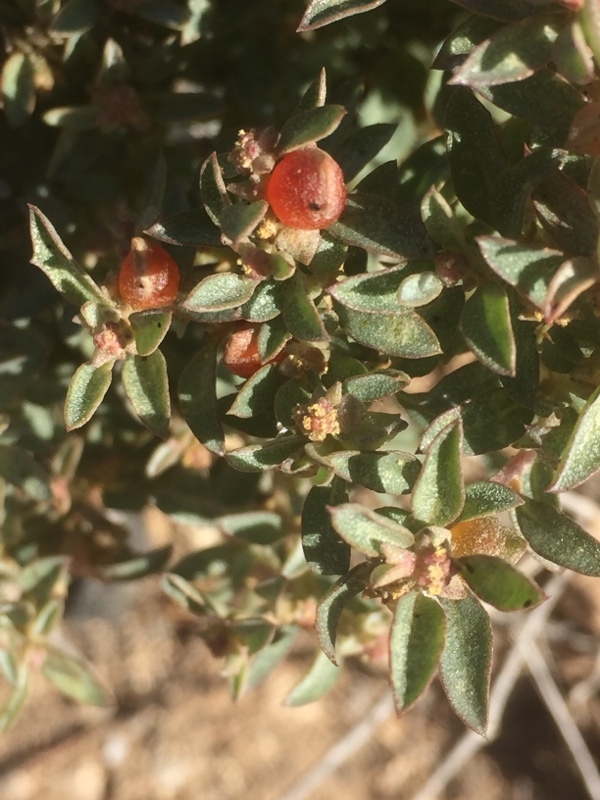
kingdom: Plantae
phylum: Tracheophyta
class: Magnoliopsida
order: Caryophyllales
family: Amaranthaceae
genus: Atriplex
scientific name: Atriplex semibaccata
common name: Australian saltbush
